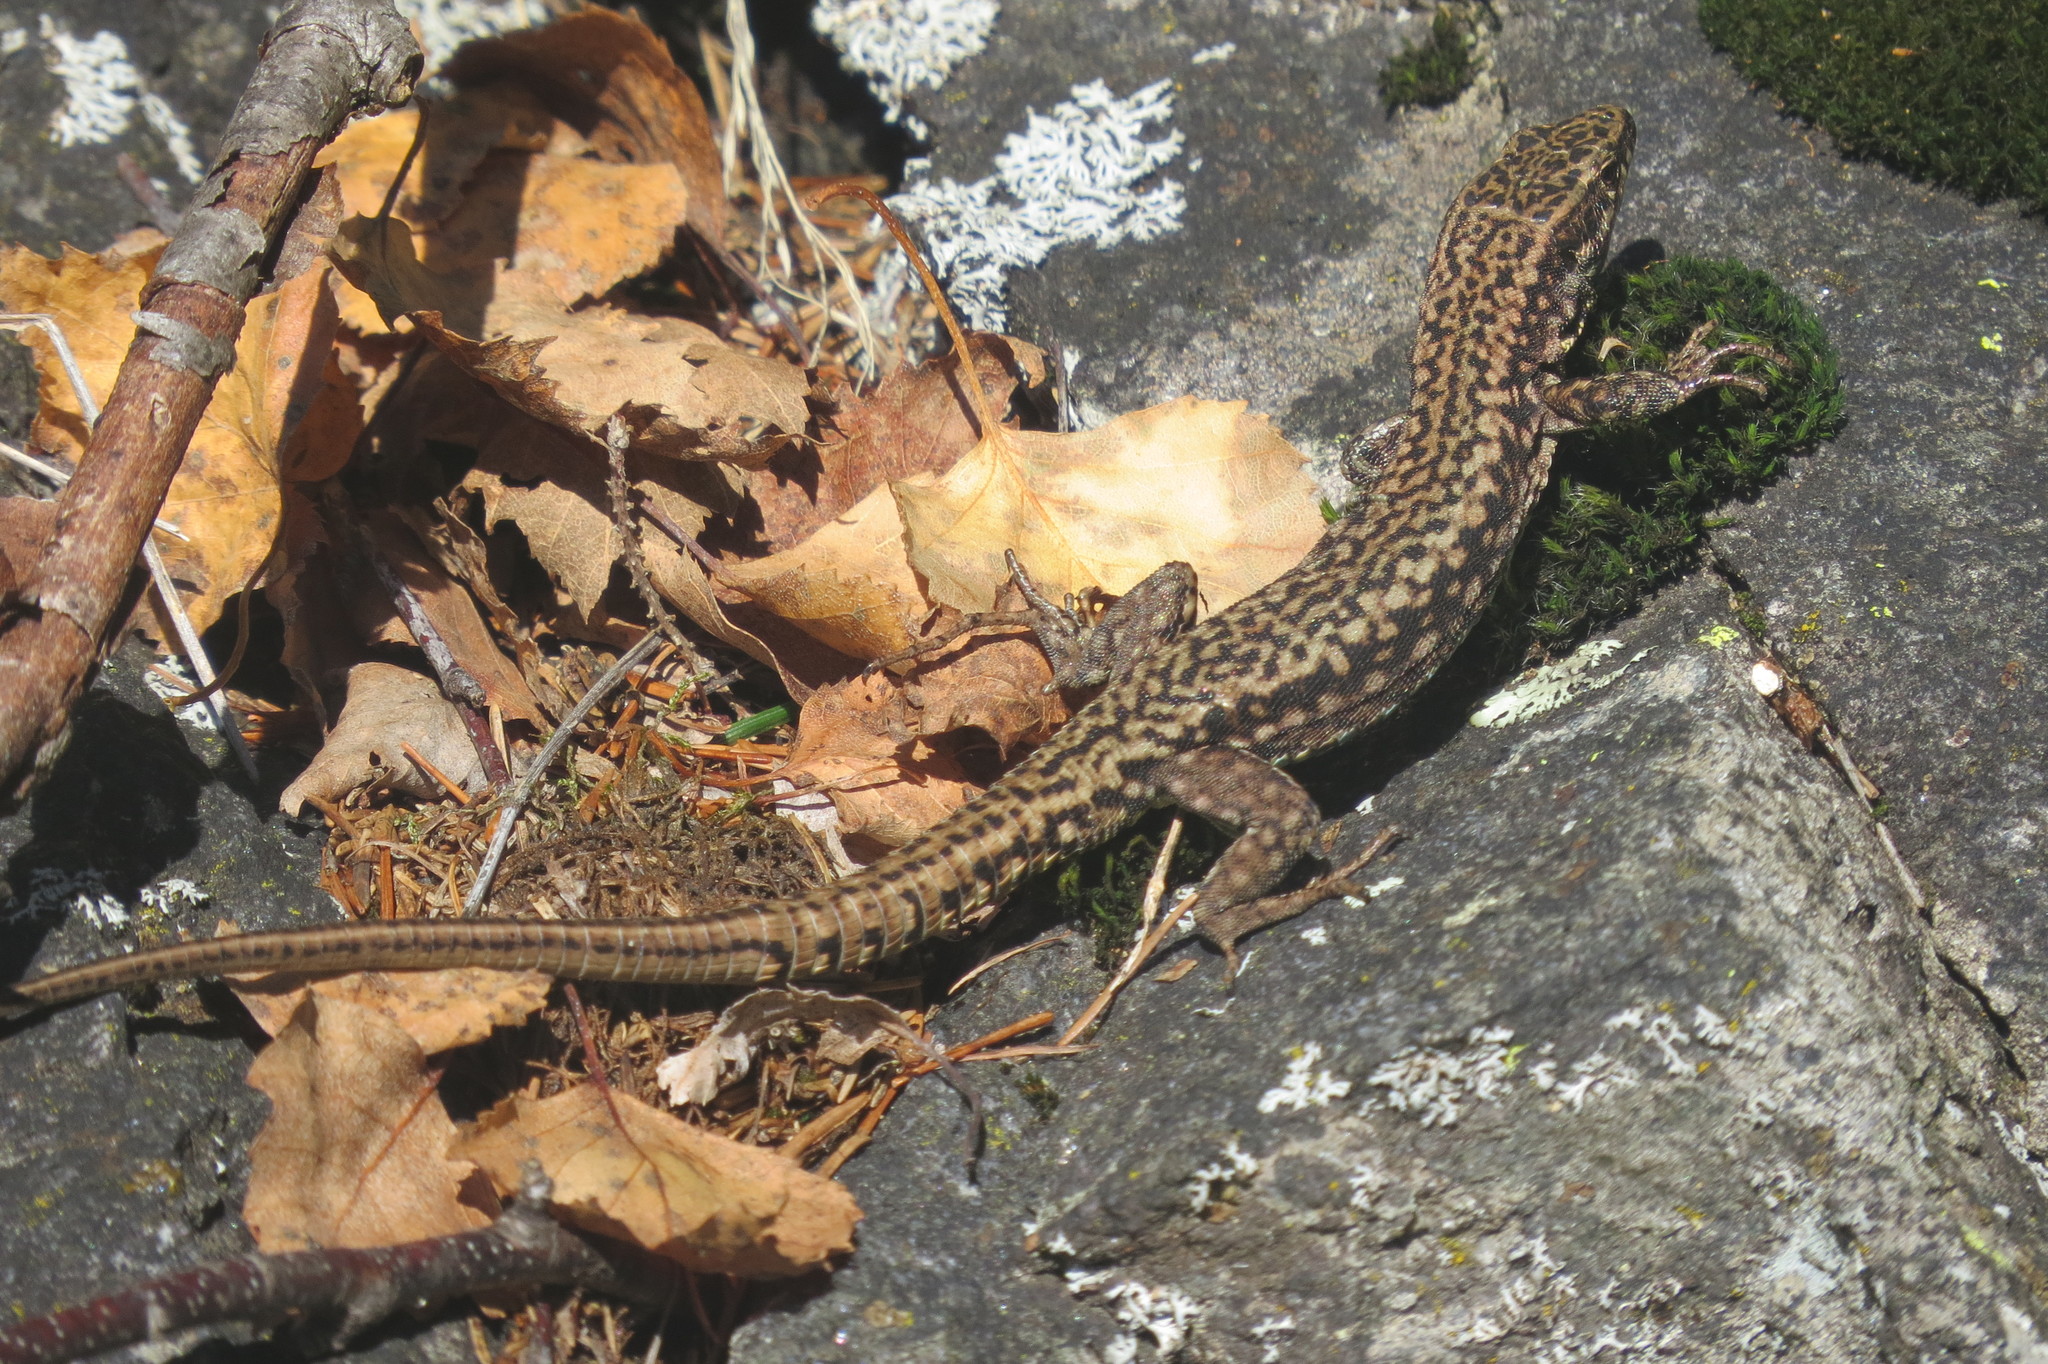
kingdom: Animalia
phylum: Chordata
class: Squamata
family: Lacertidae
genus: Podarcis
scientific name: Podarcis muralis
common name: Common wall lizard
